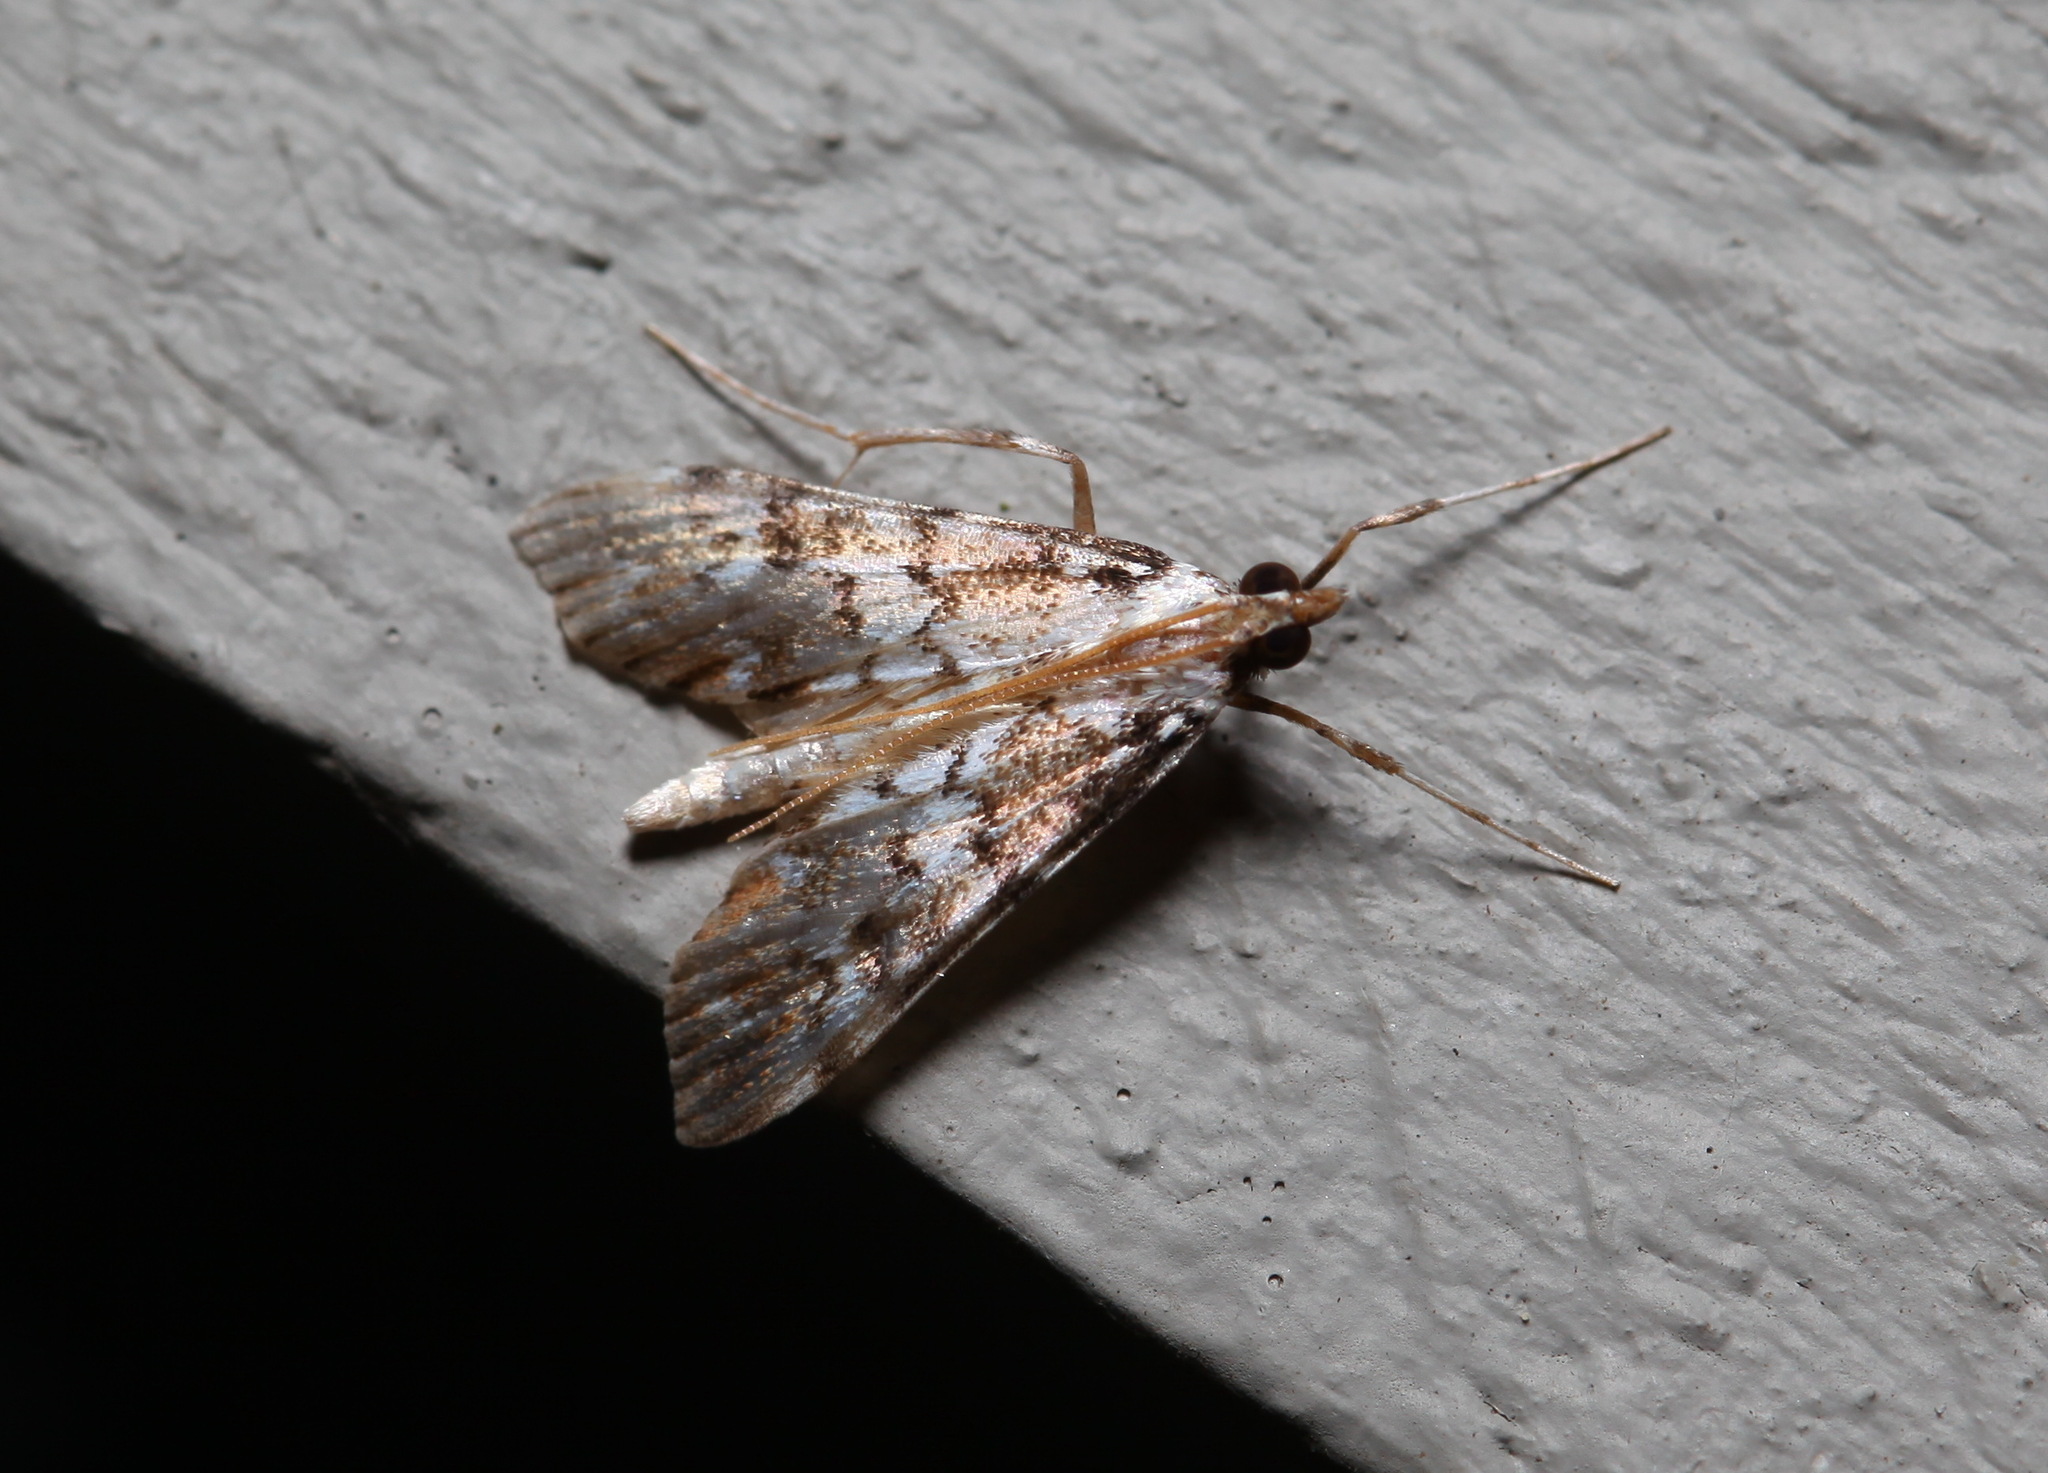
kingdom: Animalia
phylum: Arthropoda
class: Insecta
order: Lepidoptera
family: Crambidae
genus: Paschiodes
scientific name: Paschiodes mesoleucalis
